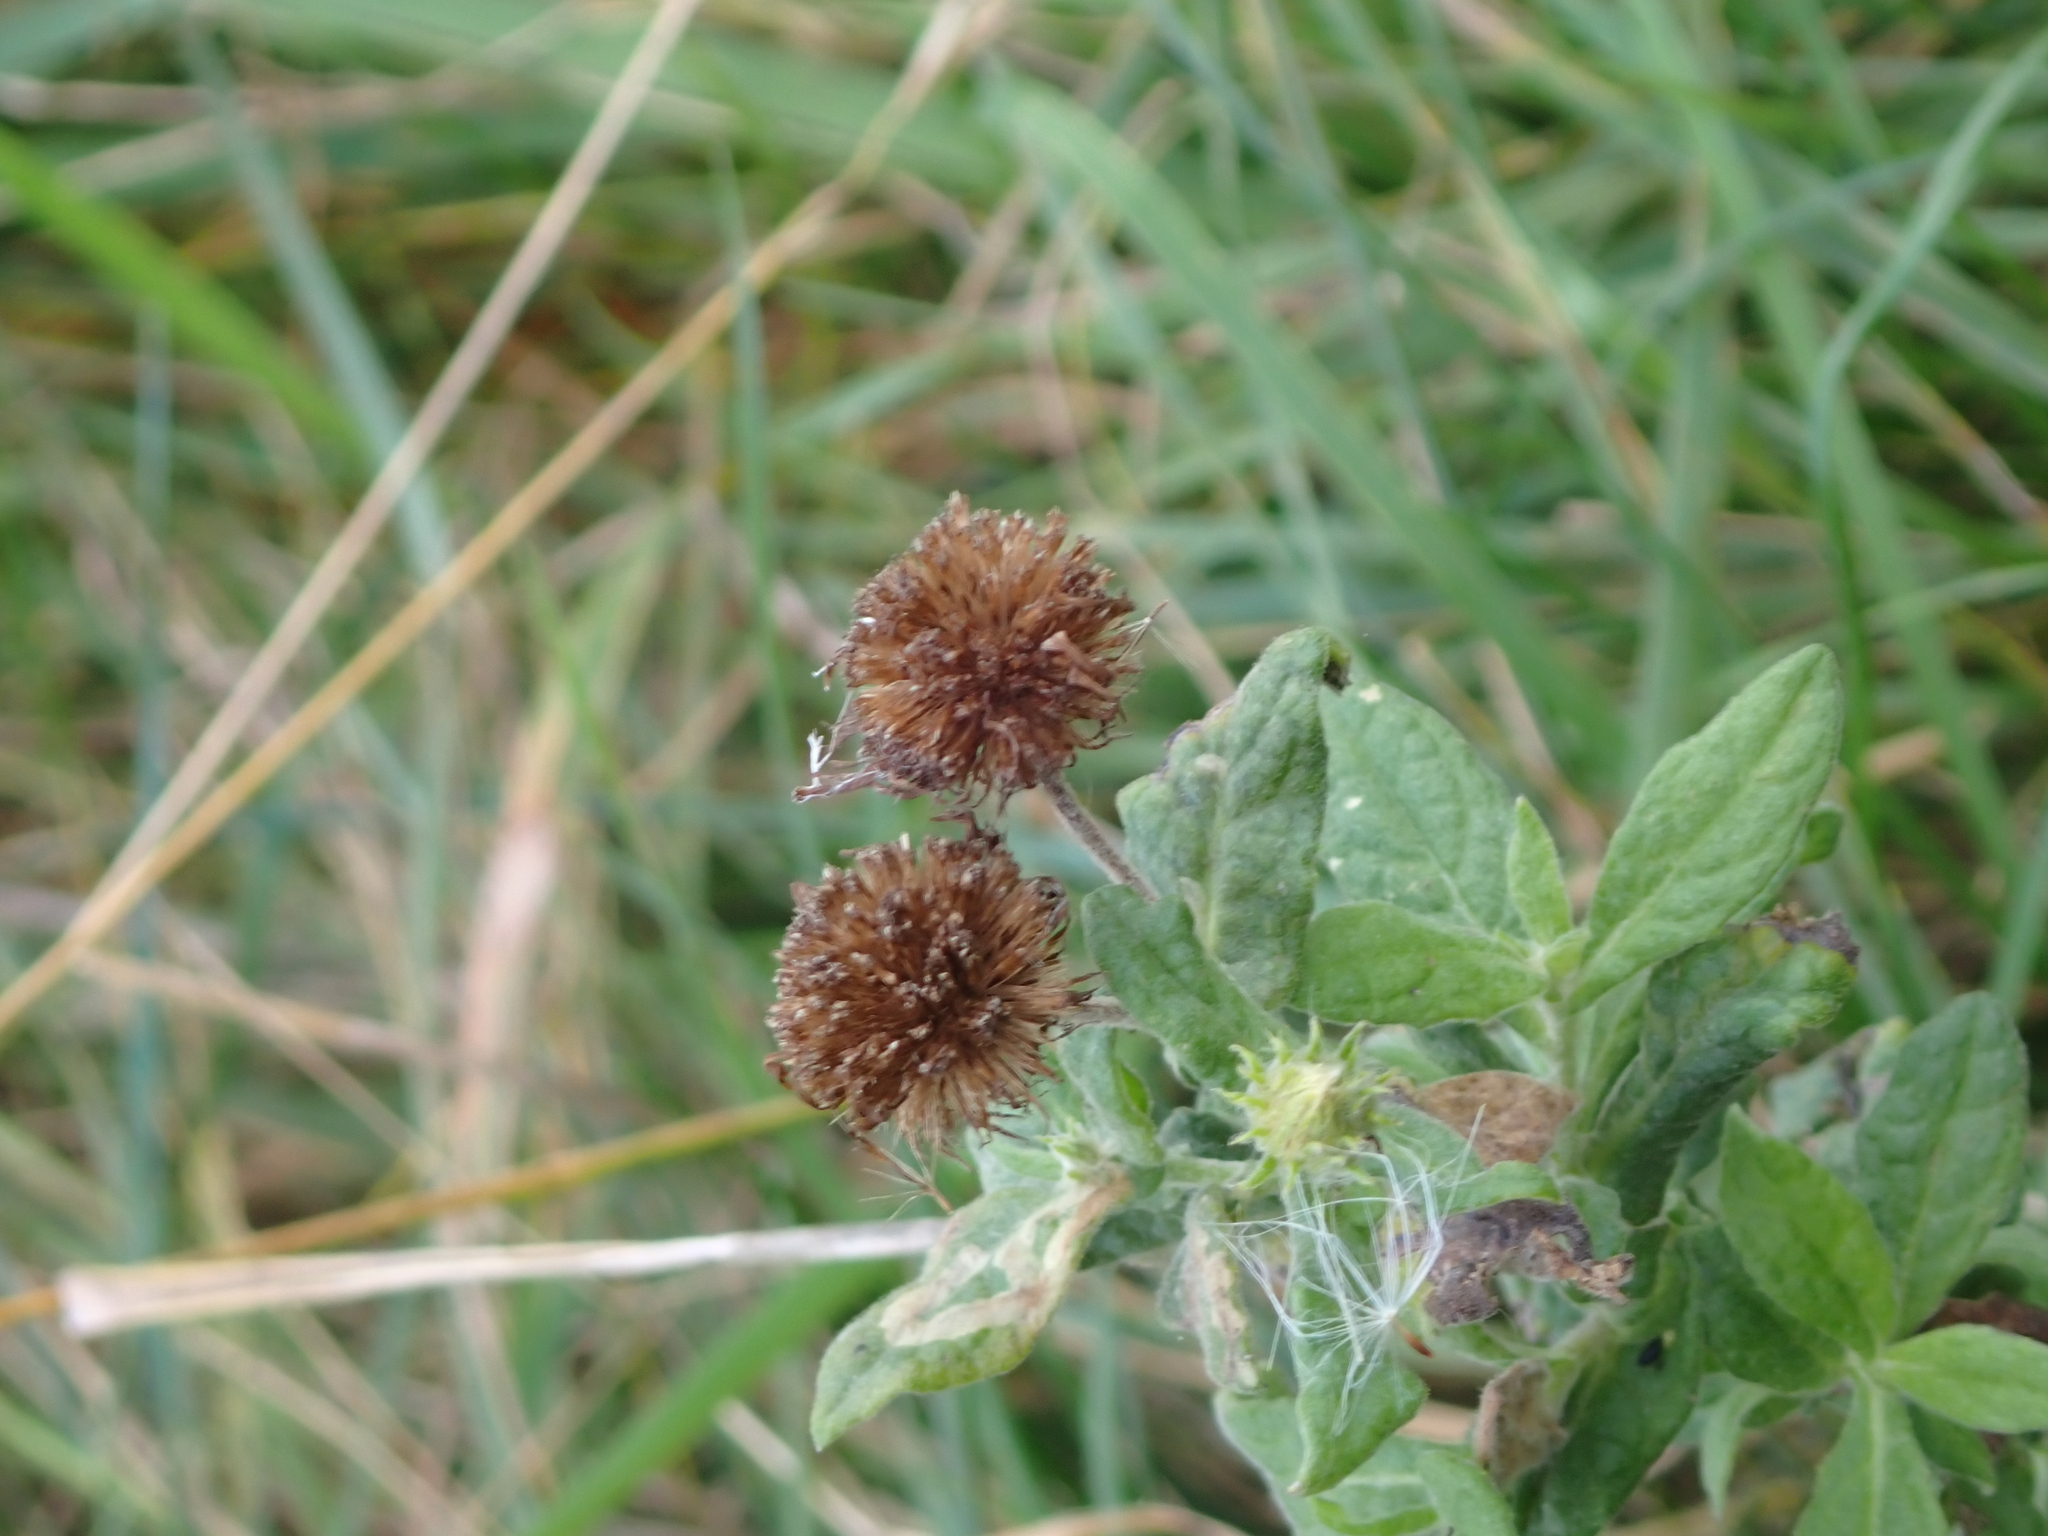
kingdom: Plantae
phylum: Tracheophyta
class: Magnoliopsida
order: Asterales
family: Asteraceae
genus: Pulicaria
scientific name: Pulicaria dysenterica
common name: Common fleabane
